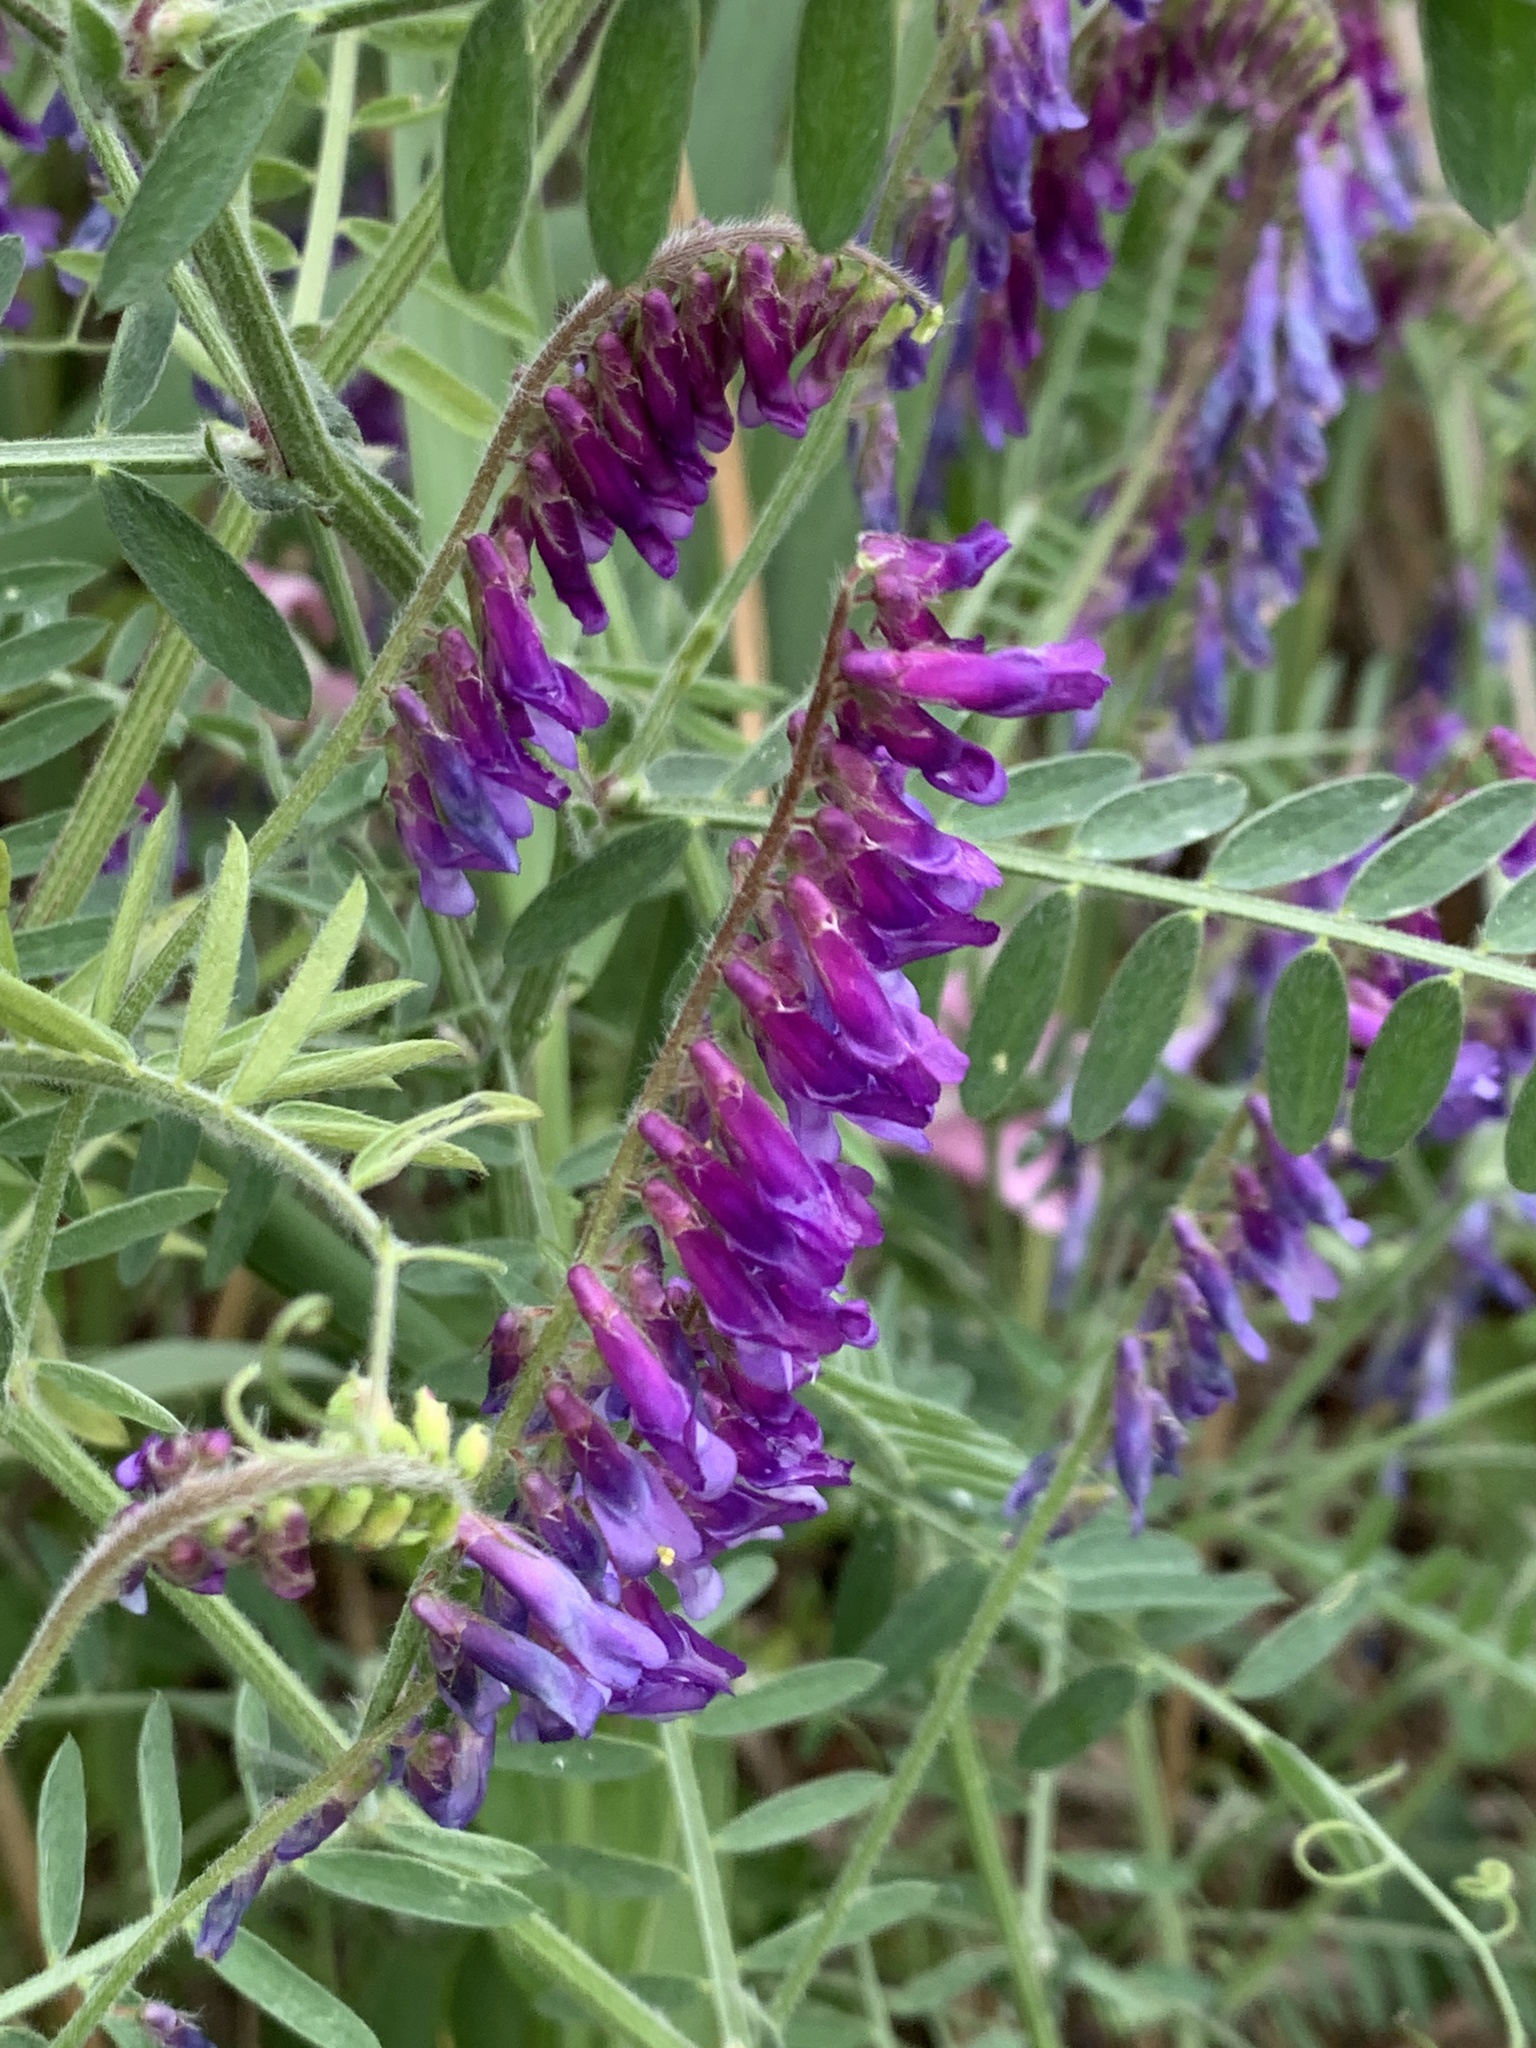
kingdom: Plantae
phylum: Tracheophyta
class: Magnoliopsida
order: Fabales
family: Fabaceae
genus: Vicia
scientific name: Vicia villosa
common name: Fodder vetch
